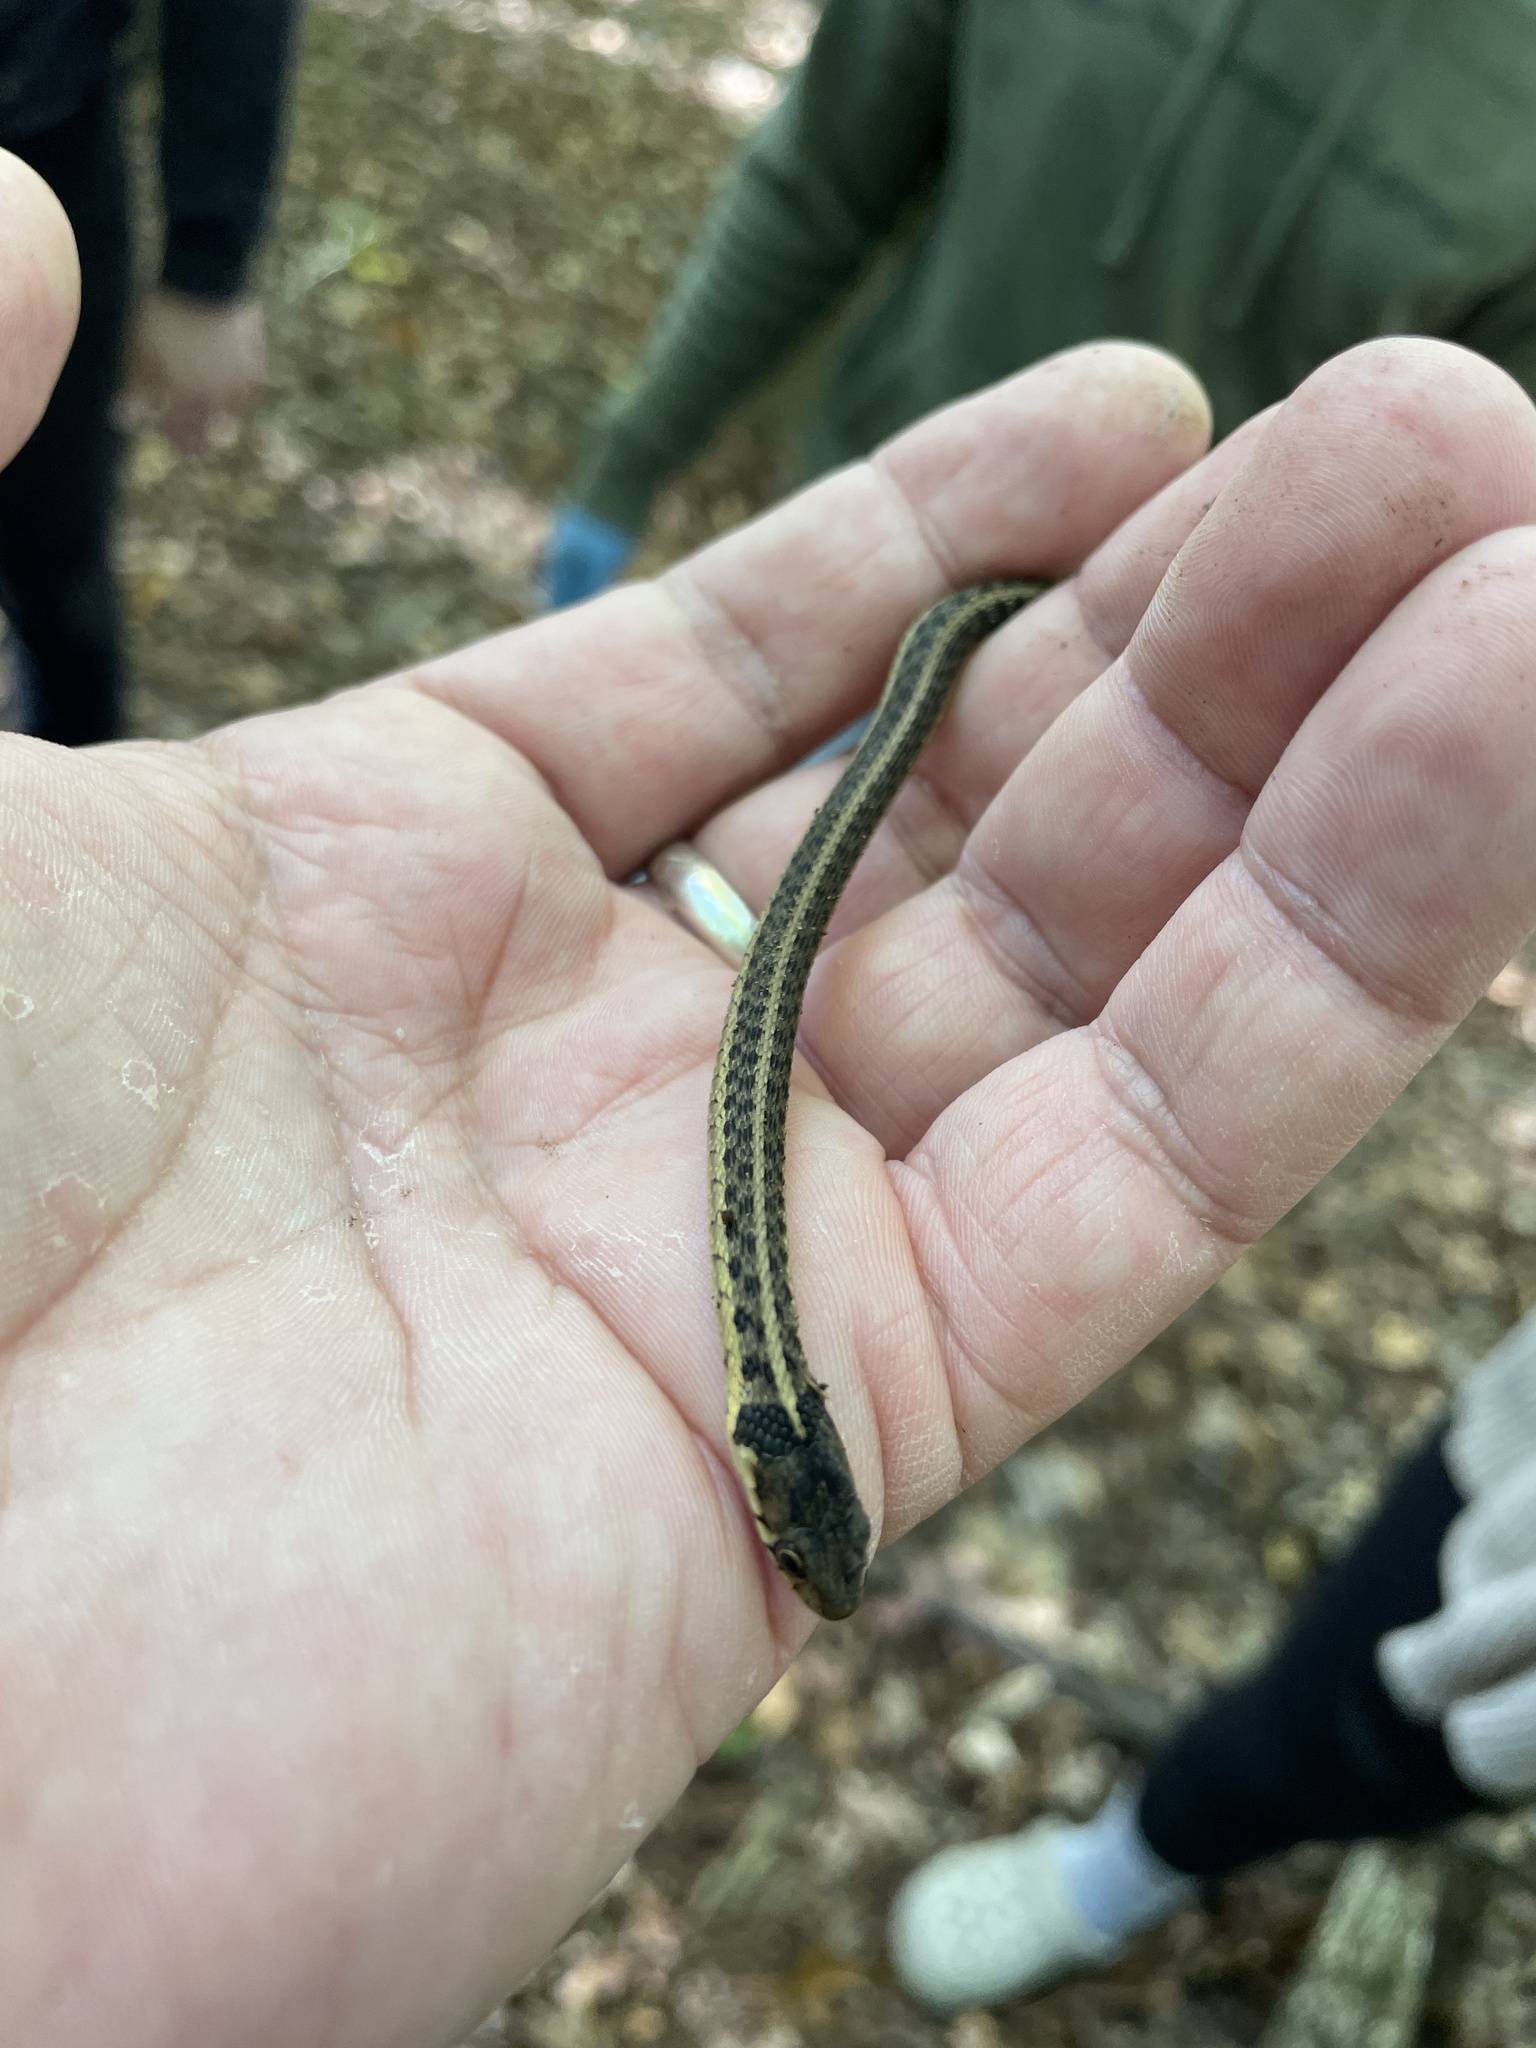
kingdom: Animalia
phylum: Chordata
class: Squamata
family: Colubridae
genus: Thamnophis
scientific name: Thamnophis sirtalis
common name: Common garter snake
